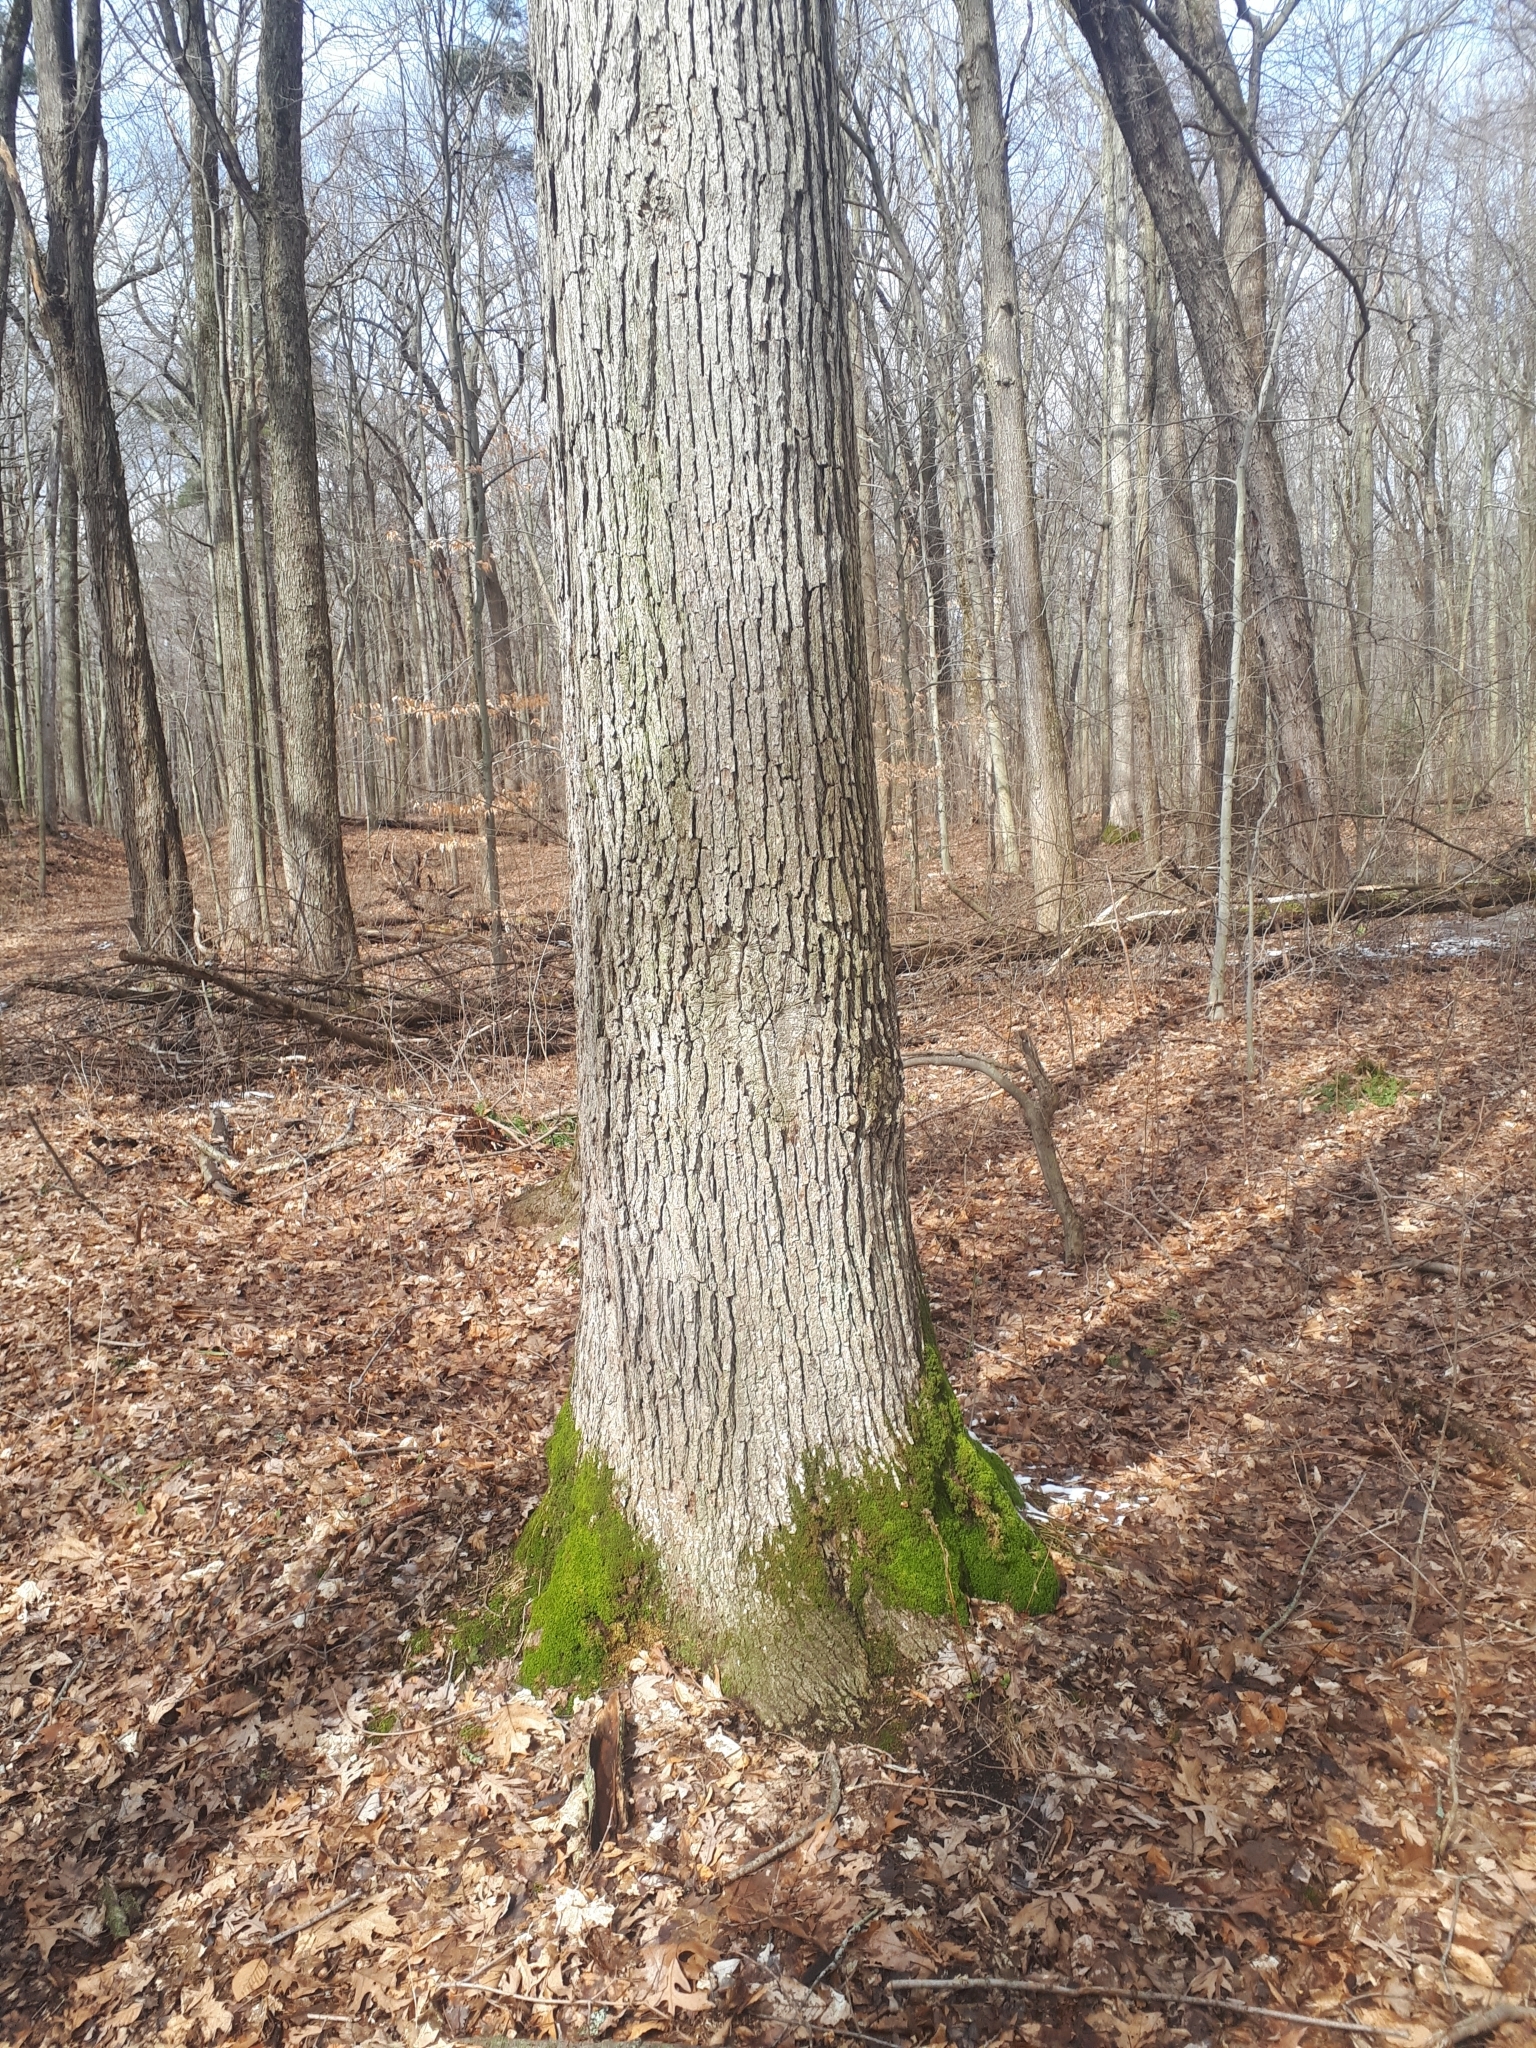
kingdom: Plantae
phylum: Tracheophyta
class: Magnoliopsida
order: Fagales
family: Fagaceae
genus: Quercus
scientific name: Quercus alba
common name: White oak
